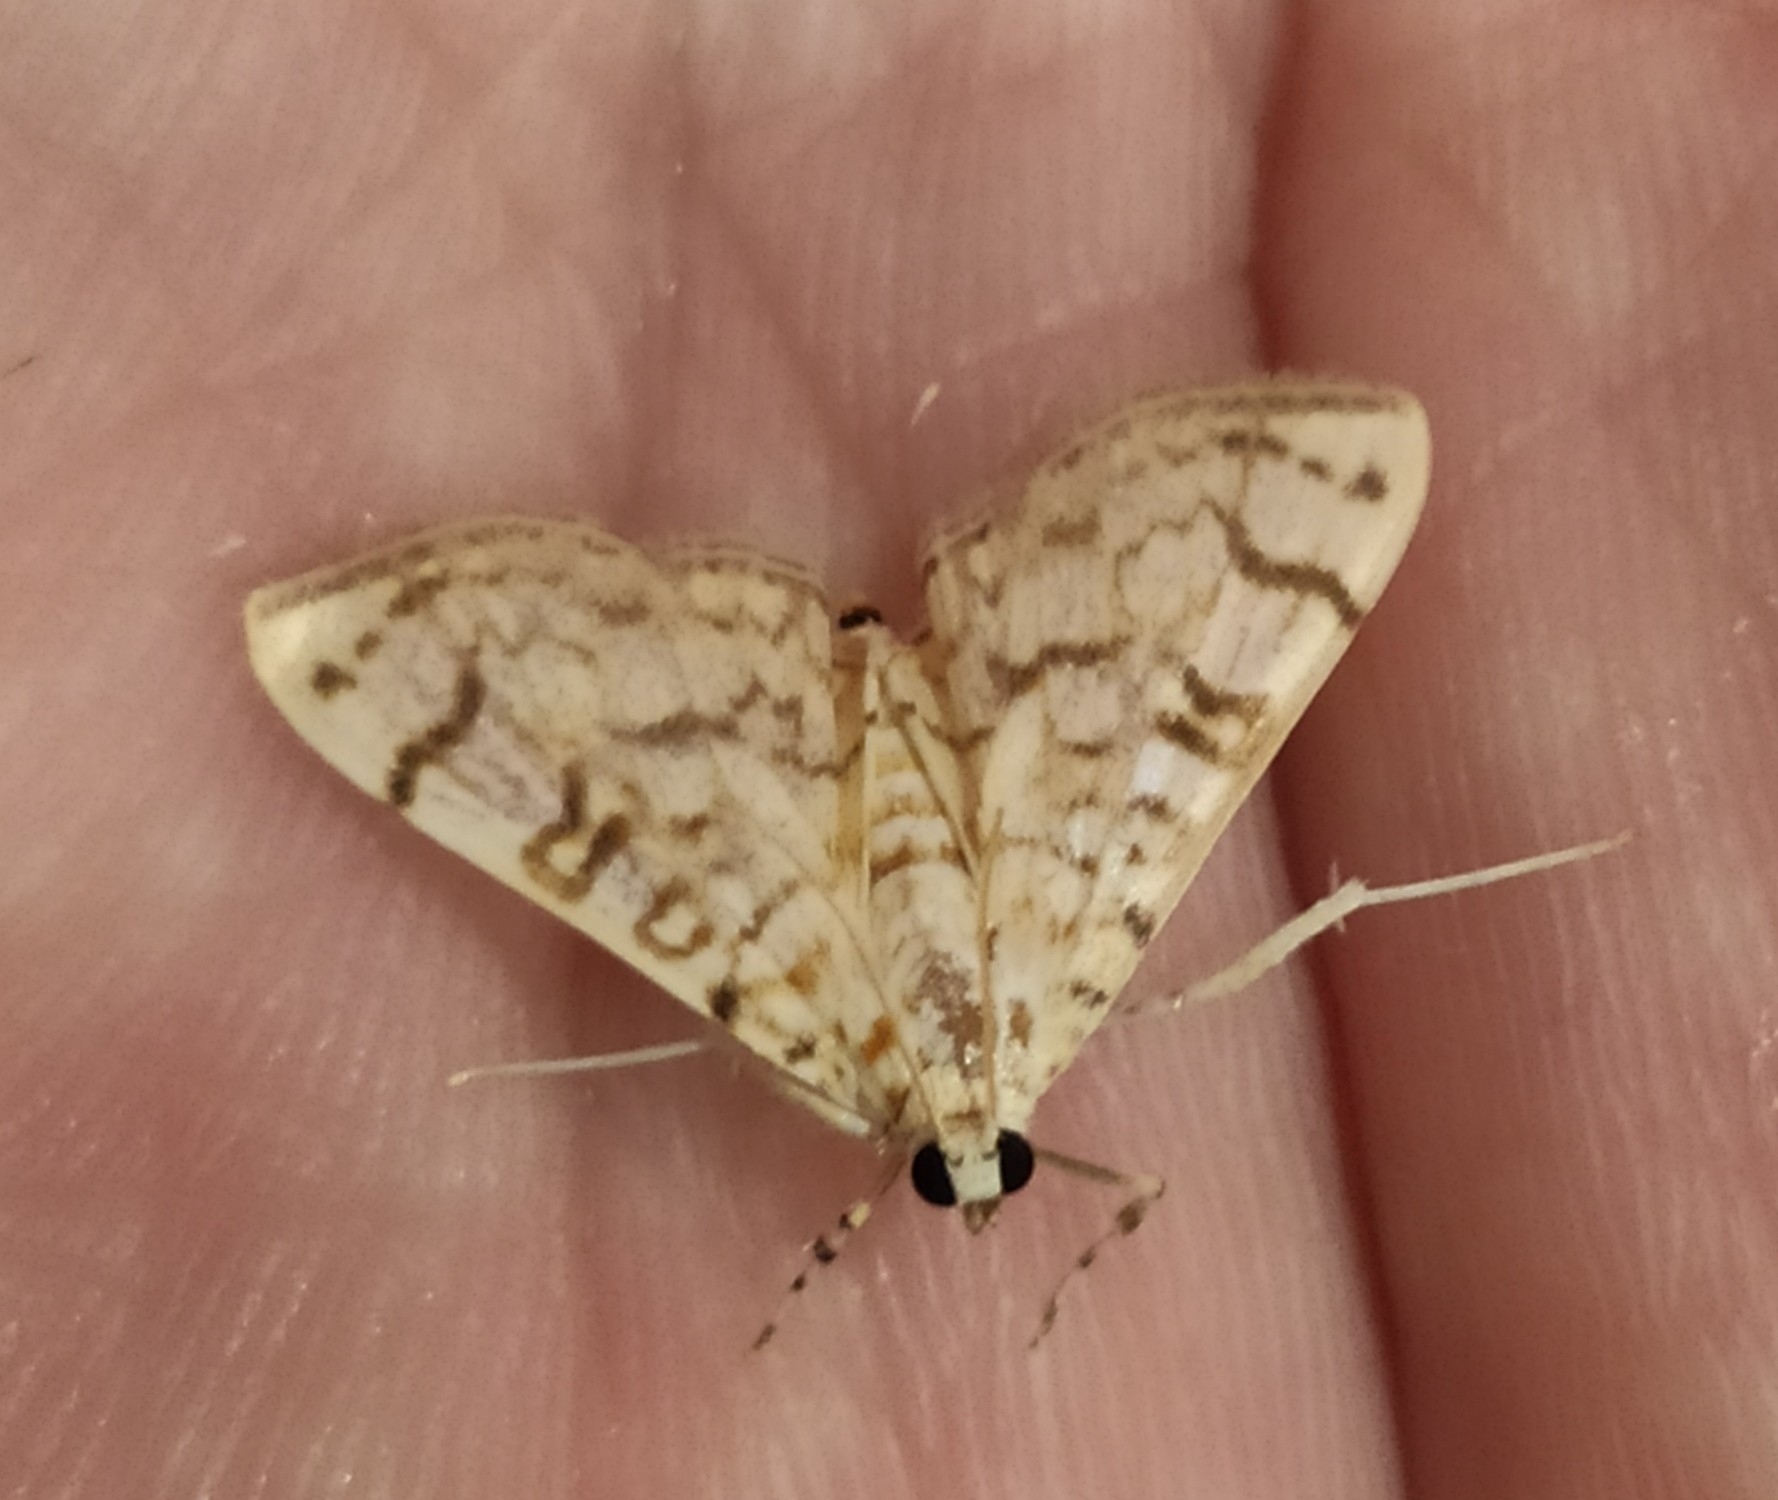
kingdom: Animalia
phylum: Arthropoda
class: Insecta
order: Lepidoptera
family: Crambidae
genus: Haritalodes
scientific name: Haritalodes derogata
